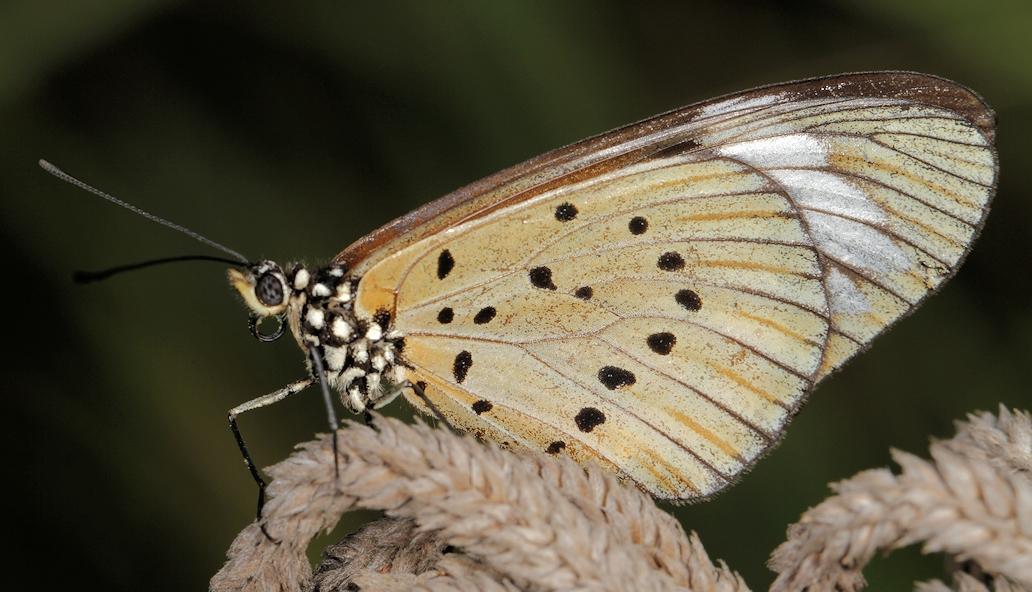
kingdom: Animalia
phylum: Arthropoda
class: Insecta
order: Lepidoptera
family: Nymphalidae
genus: Acraea
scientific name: Acraea Telchinia encedon
